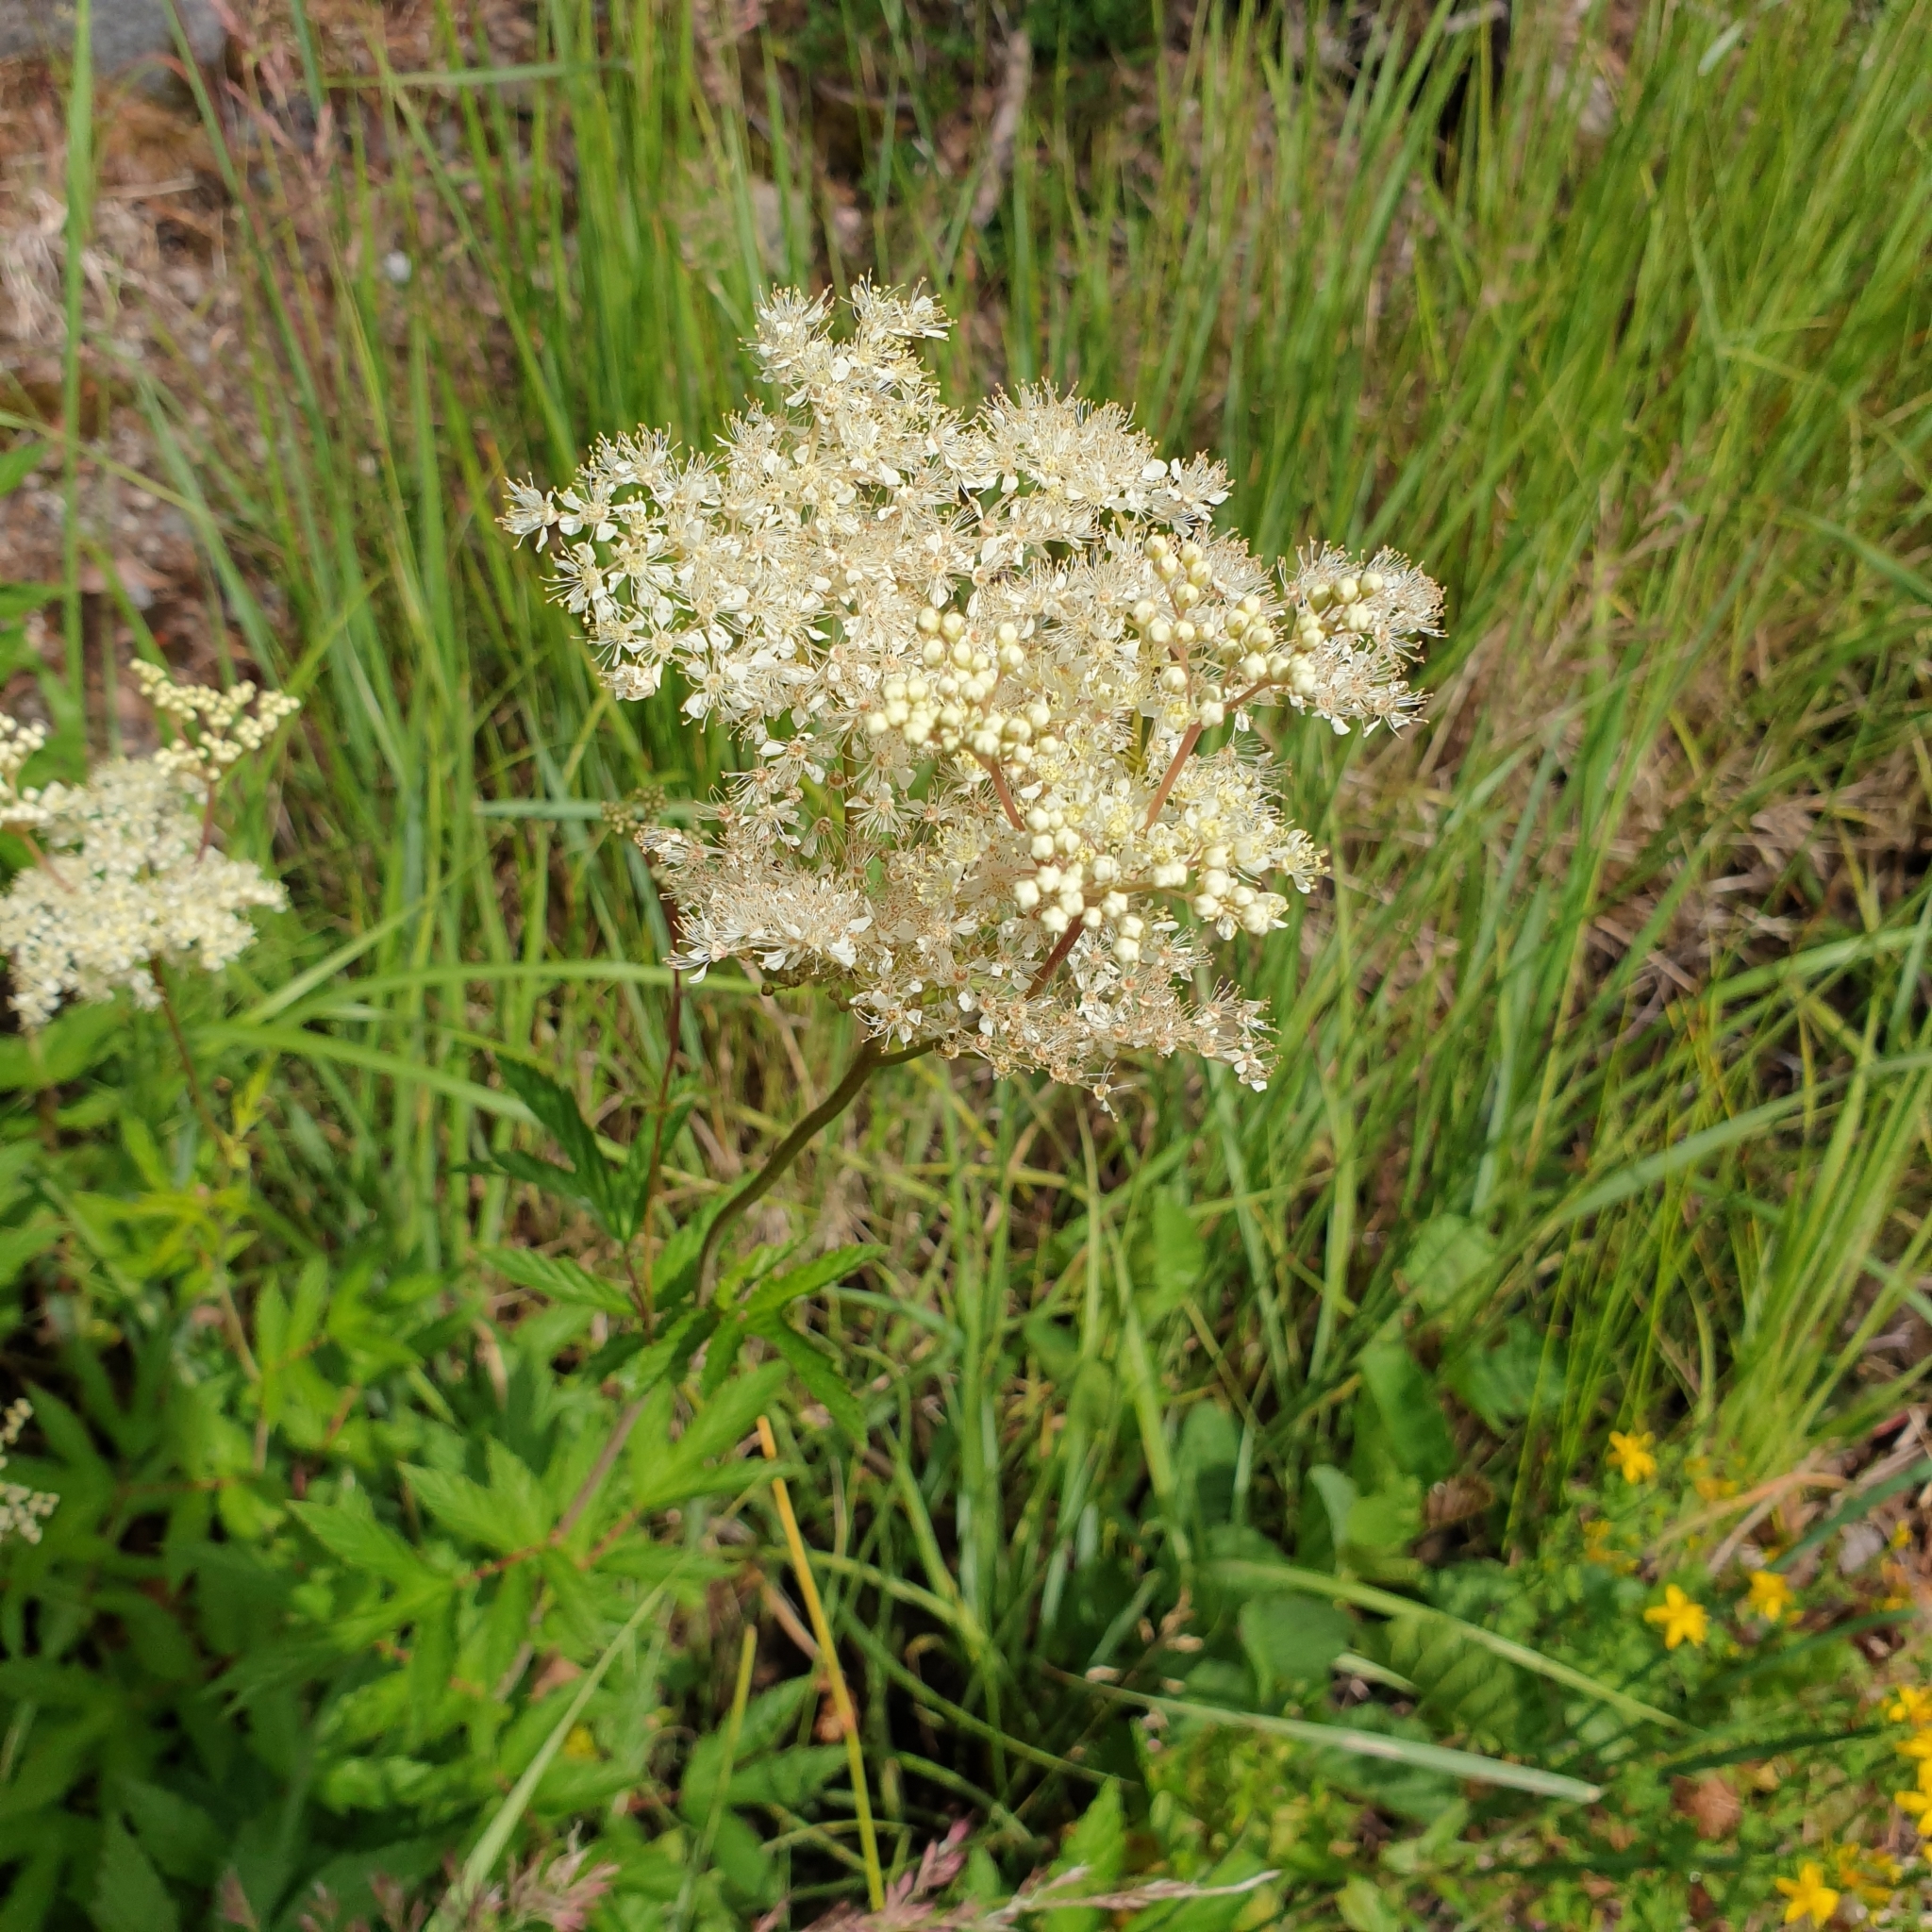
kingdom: Plantae
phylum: Tracheophyta
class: Magnoliopsida
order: Rosales
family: Rosaceae
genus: Filipendula
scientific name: Filipendula ulmaria
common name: Meadowsweet
